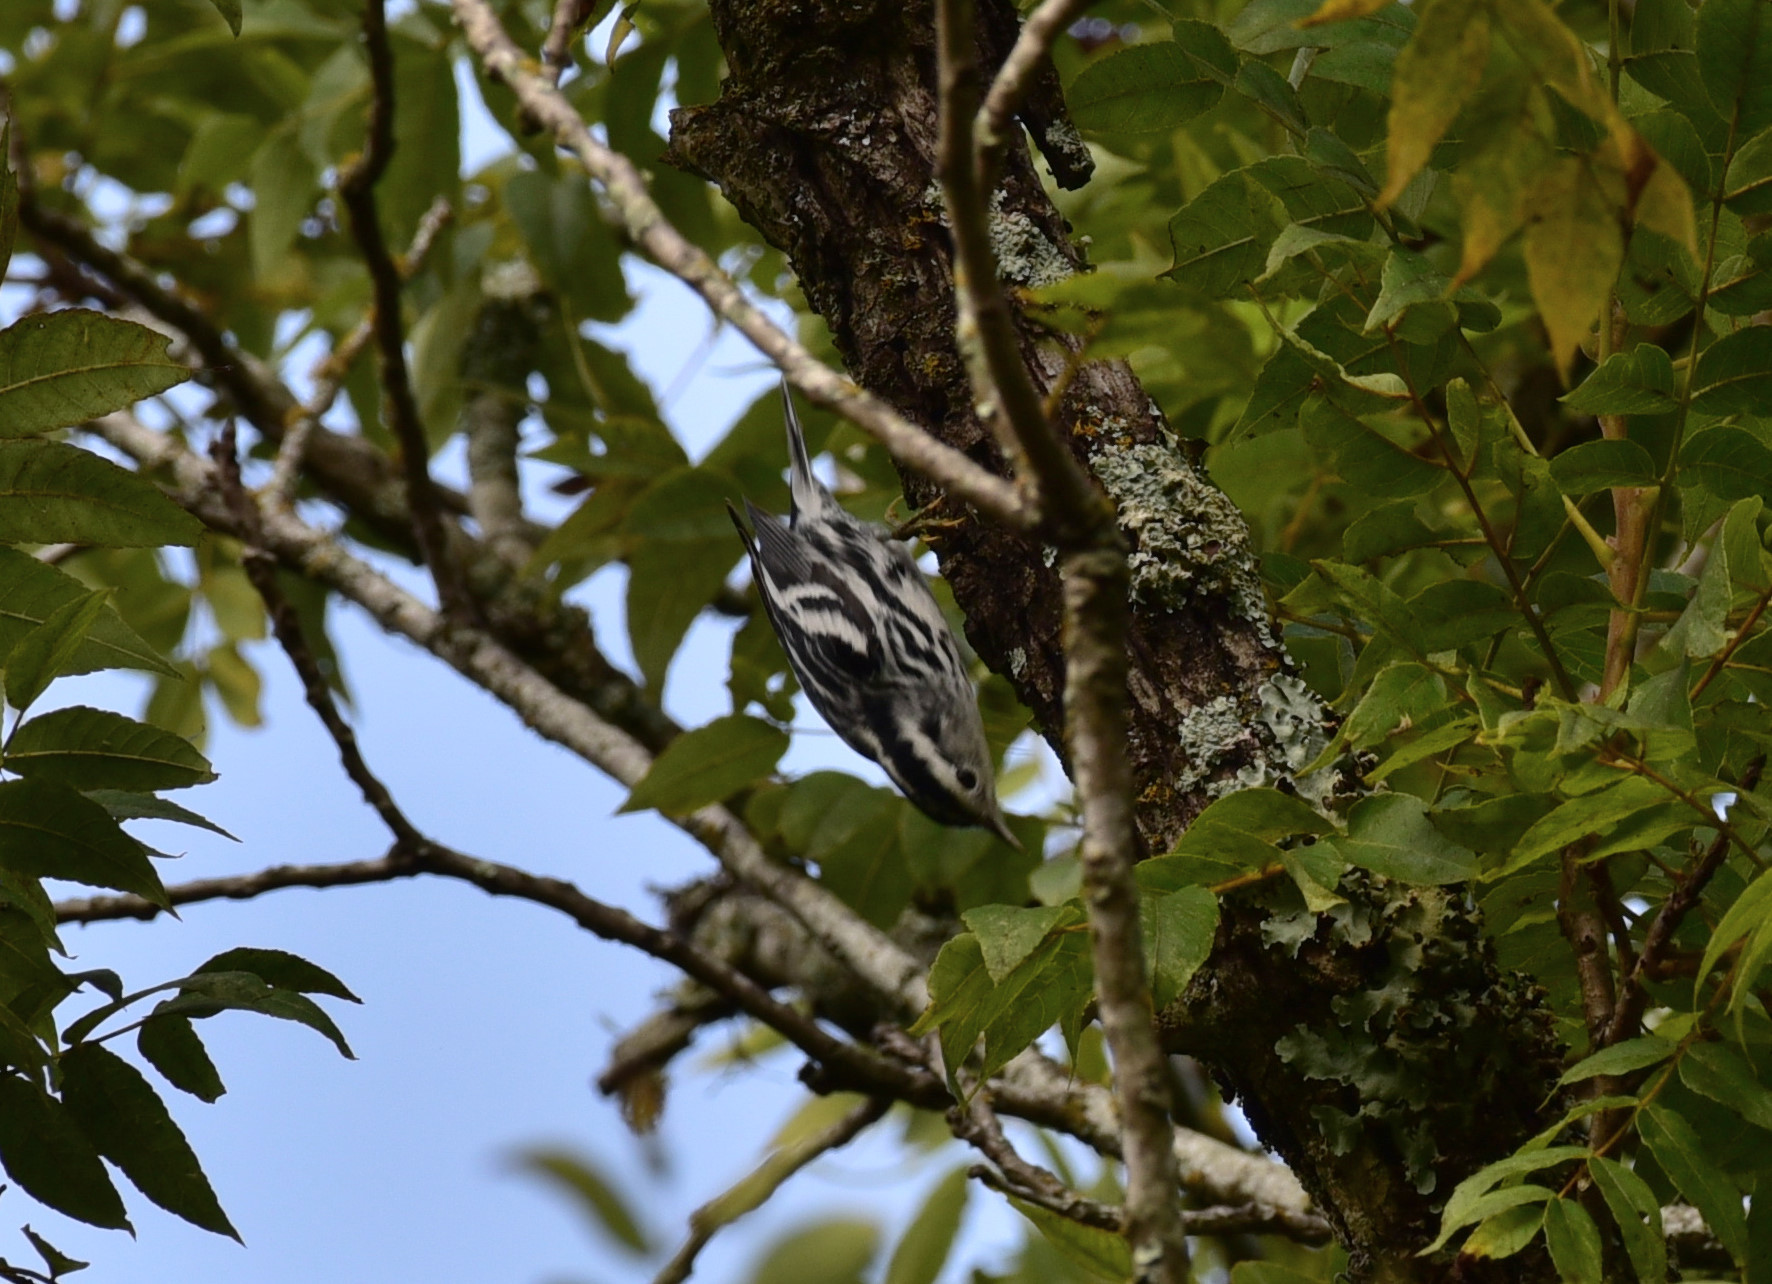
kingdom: Animalia
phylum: Chordata
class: Aves
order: Passeriformes
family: Parulidae
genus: Mniotilta
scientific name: Mniotilta varia
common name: Black-and-white warbler
